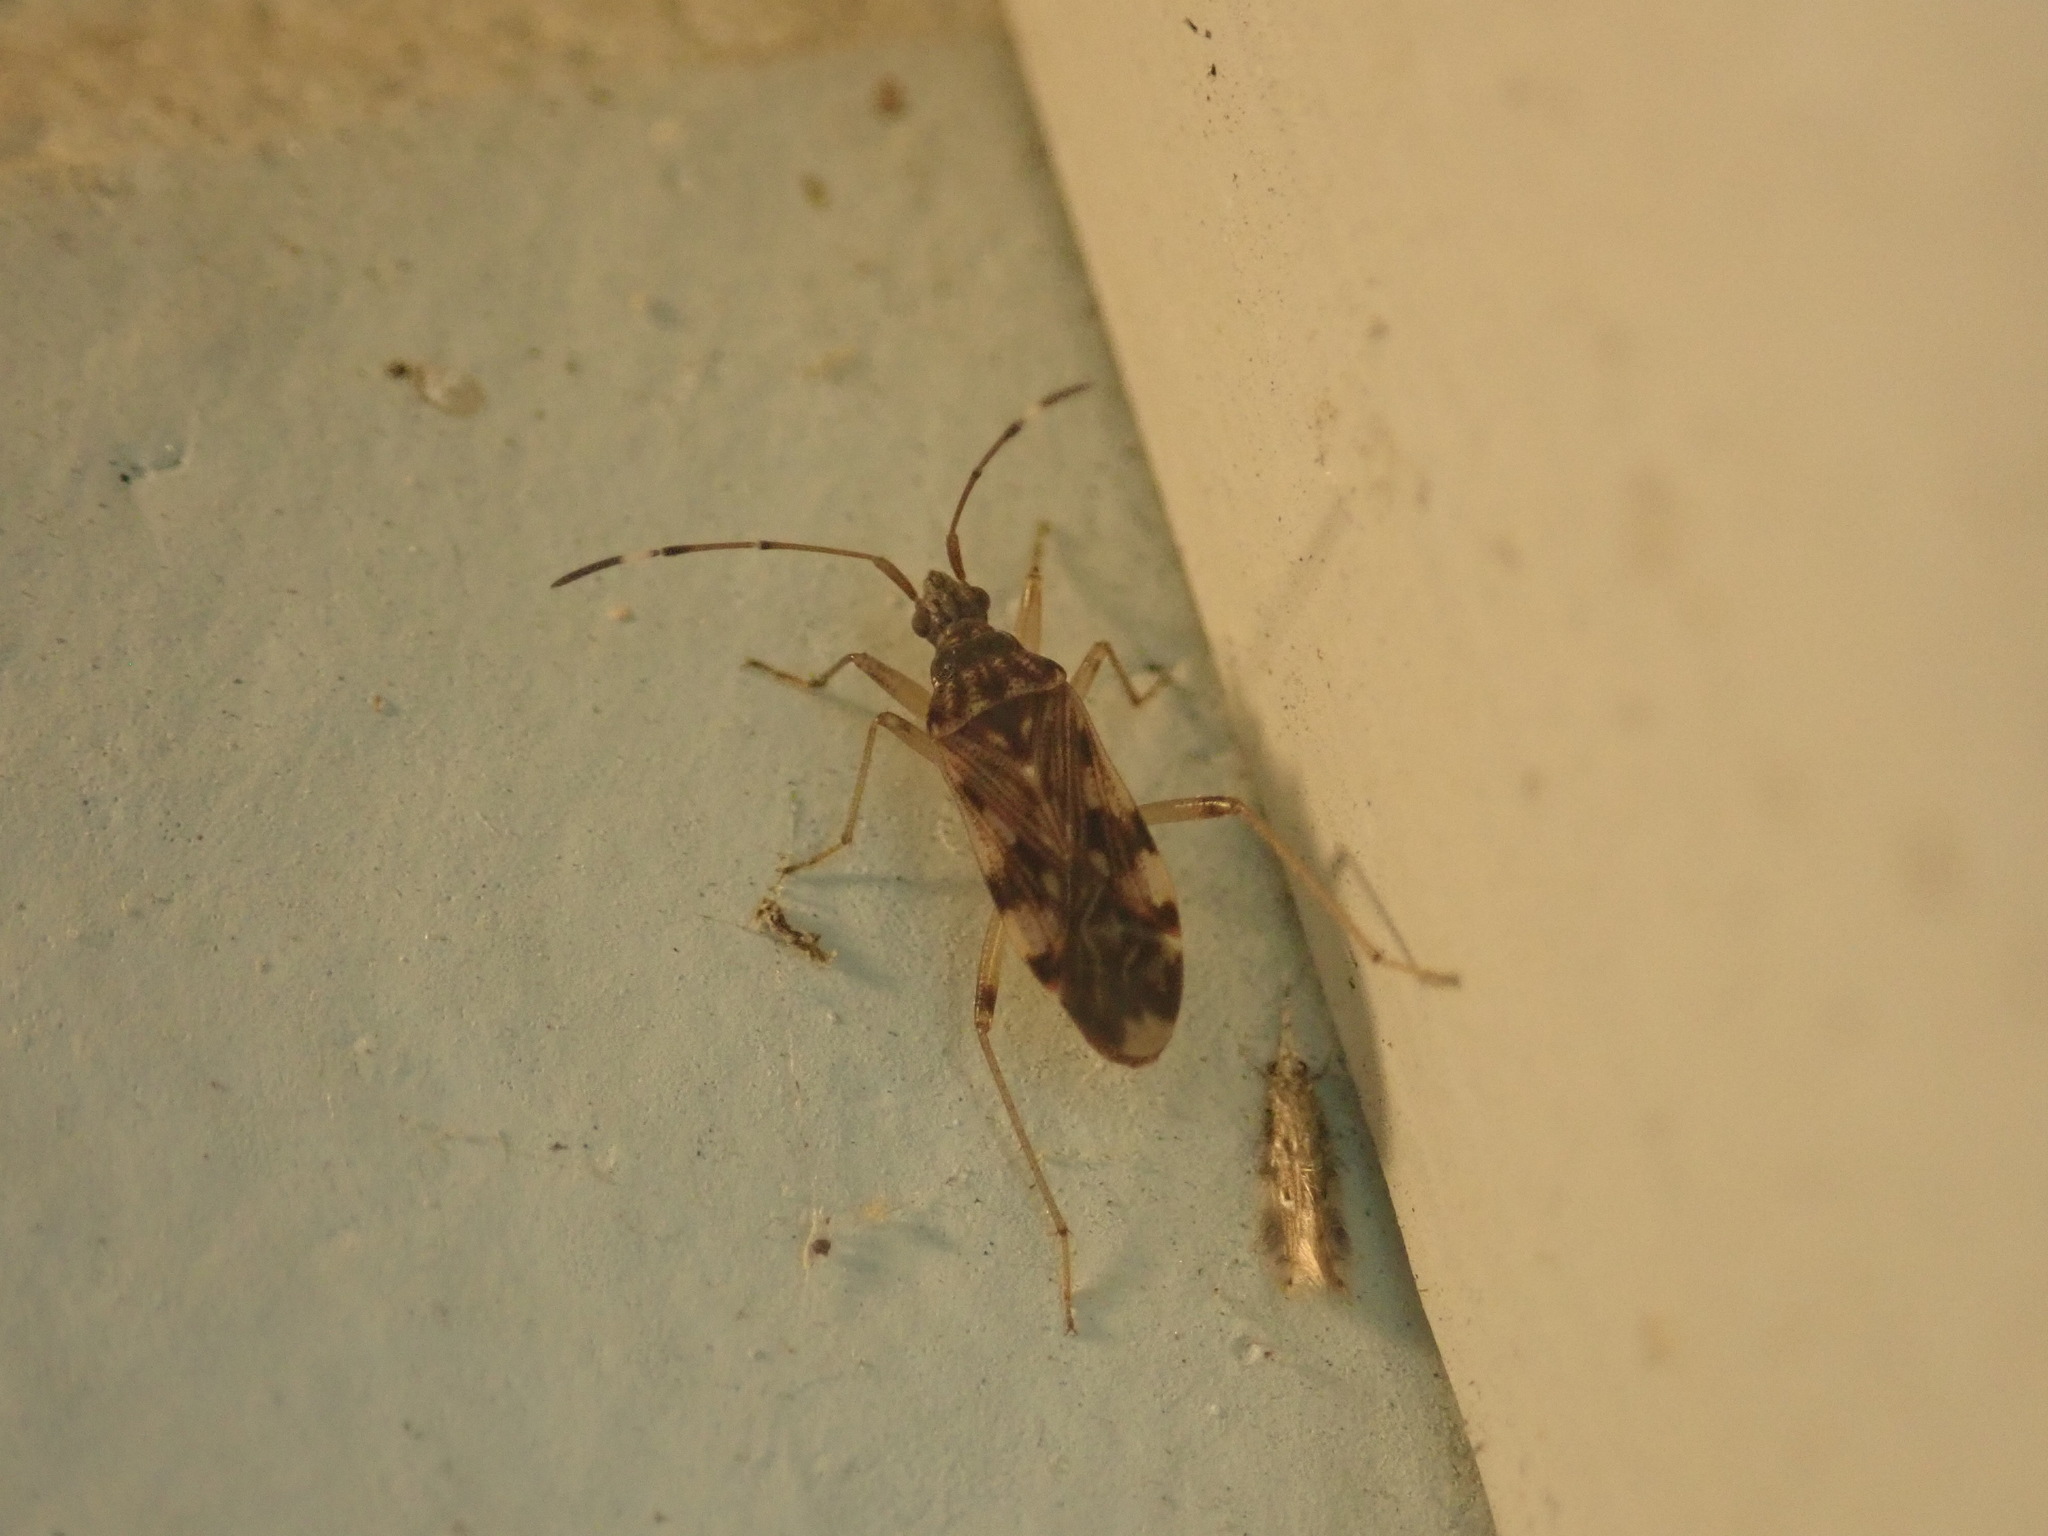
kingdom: Animalia
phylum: Arthropoda
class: Insecta
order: Hemiptera
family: Rhyparochromidae
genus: Ozophora
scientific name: Ozophora picturata
